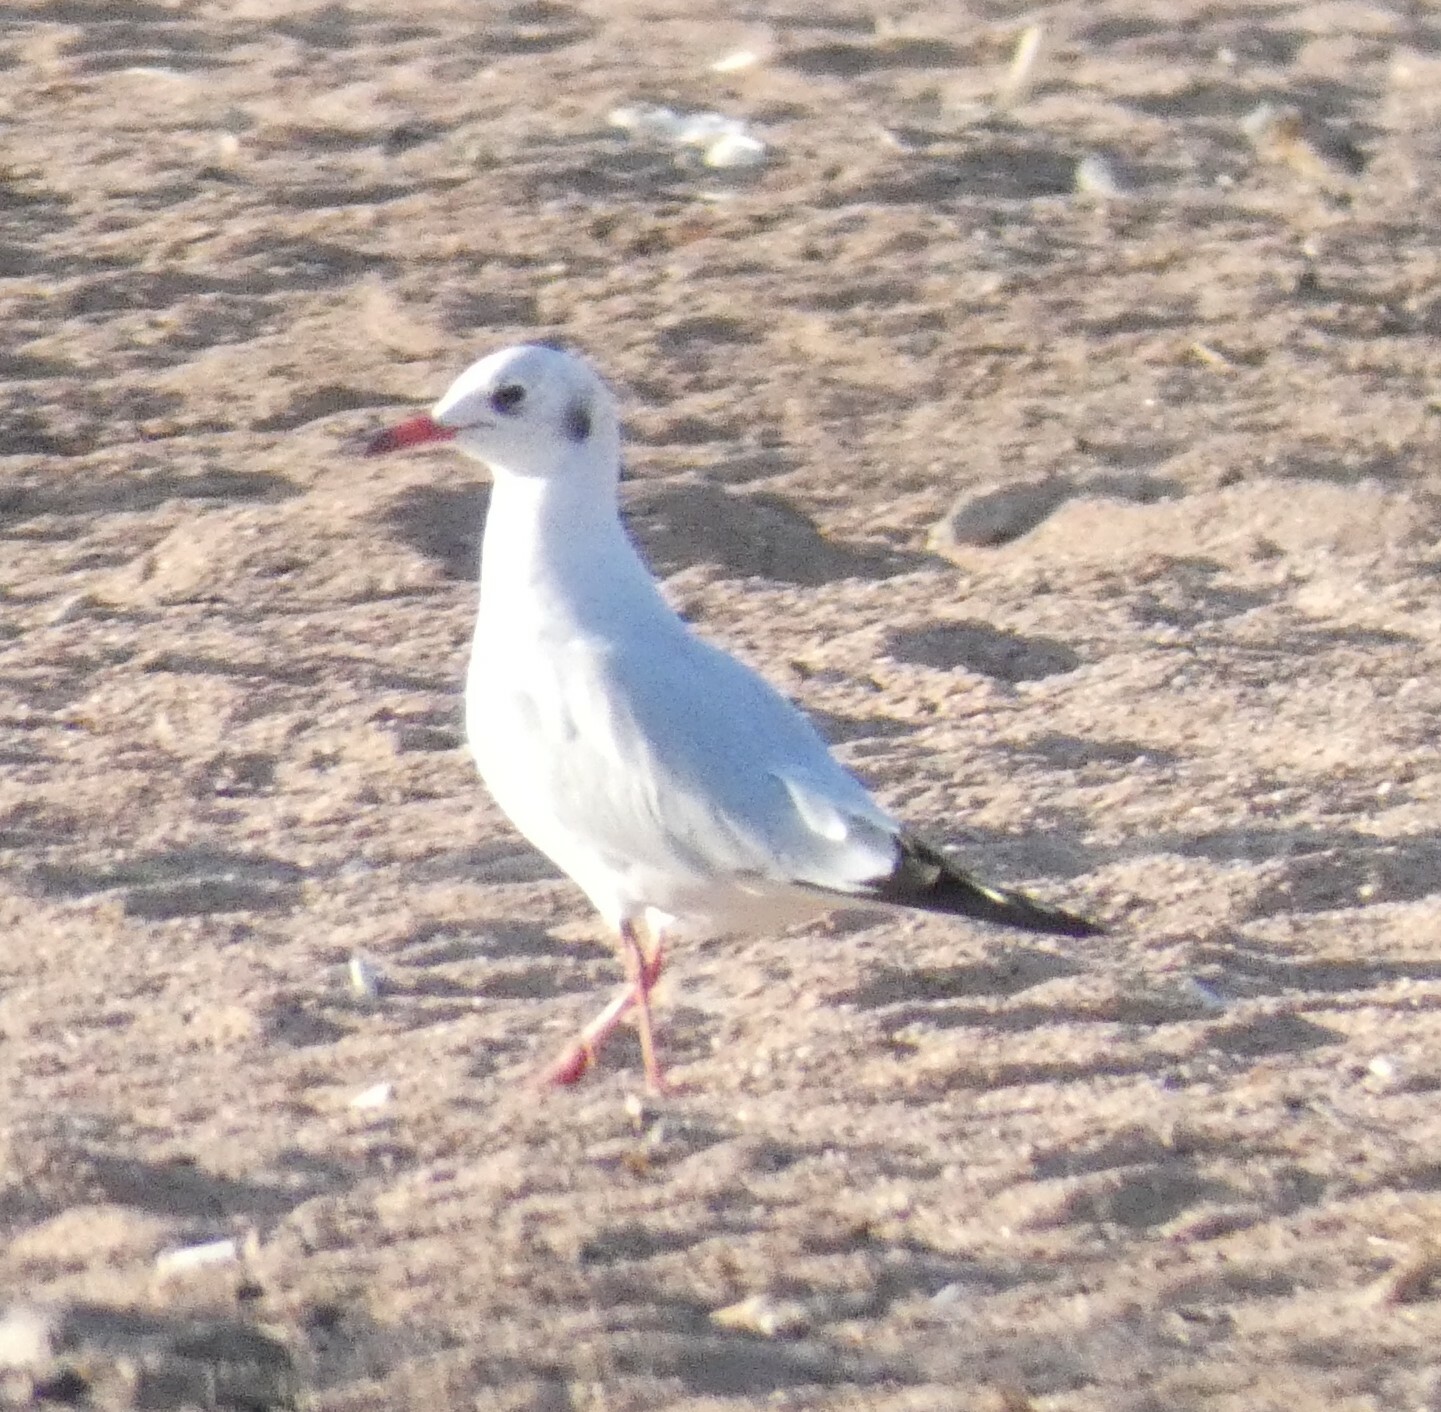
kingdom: Animalia
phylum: Chordata
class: Aves
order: Charadriiformes
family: Laridae
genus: Chroicocephalus
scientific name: Chroicocephalus ridibundus
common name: Black-headed gull
